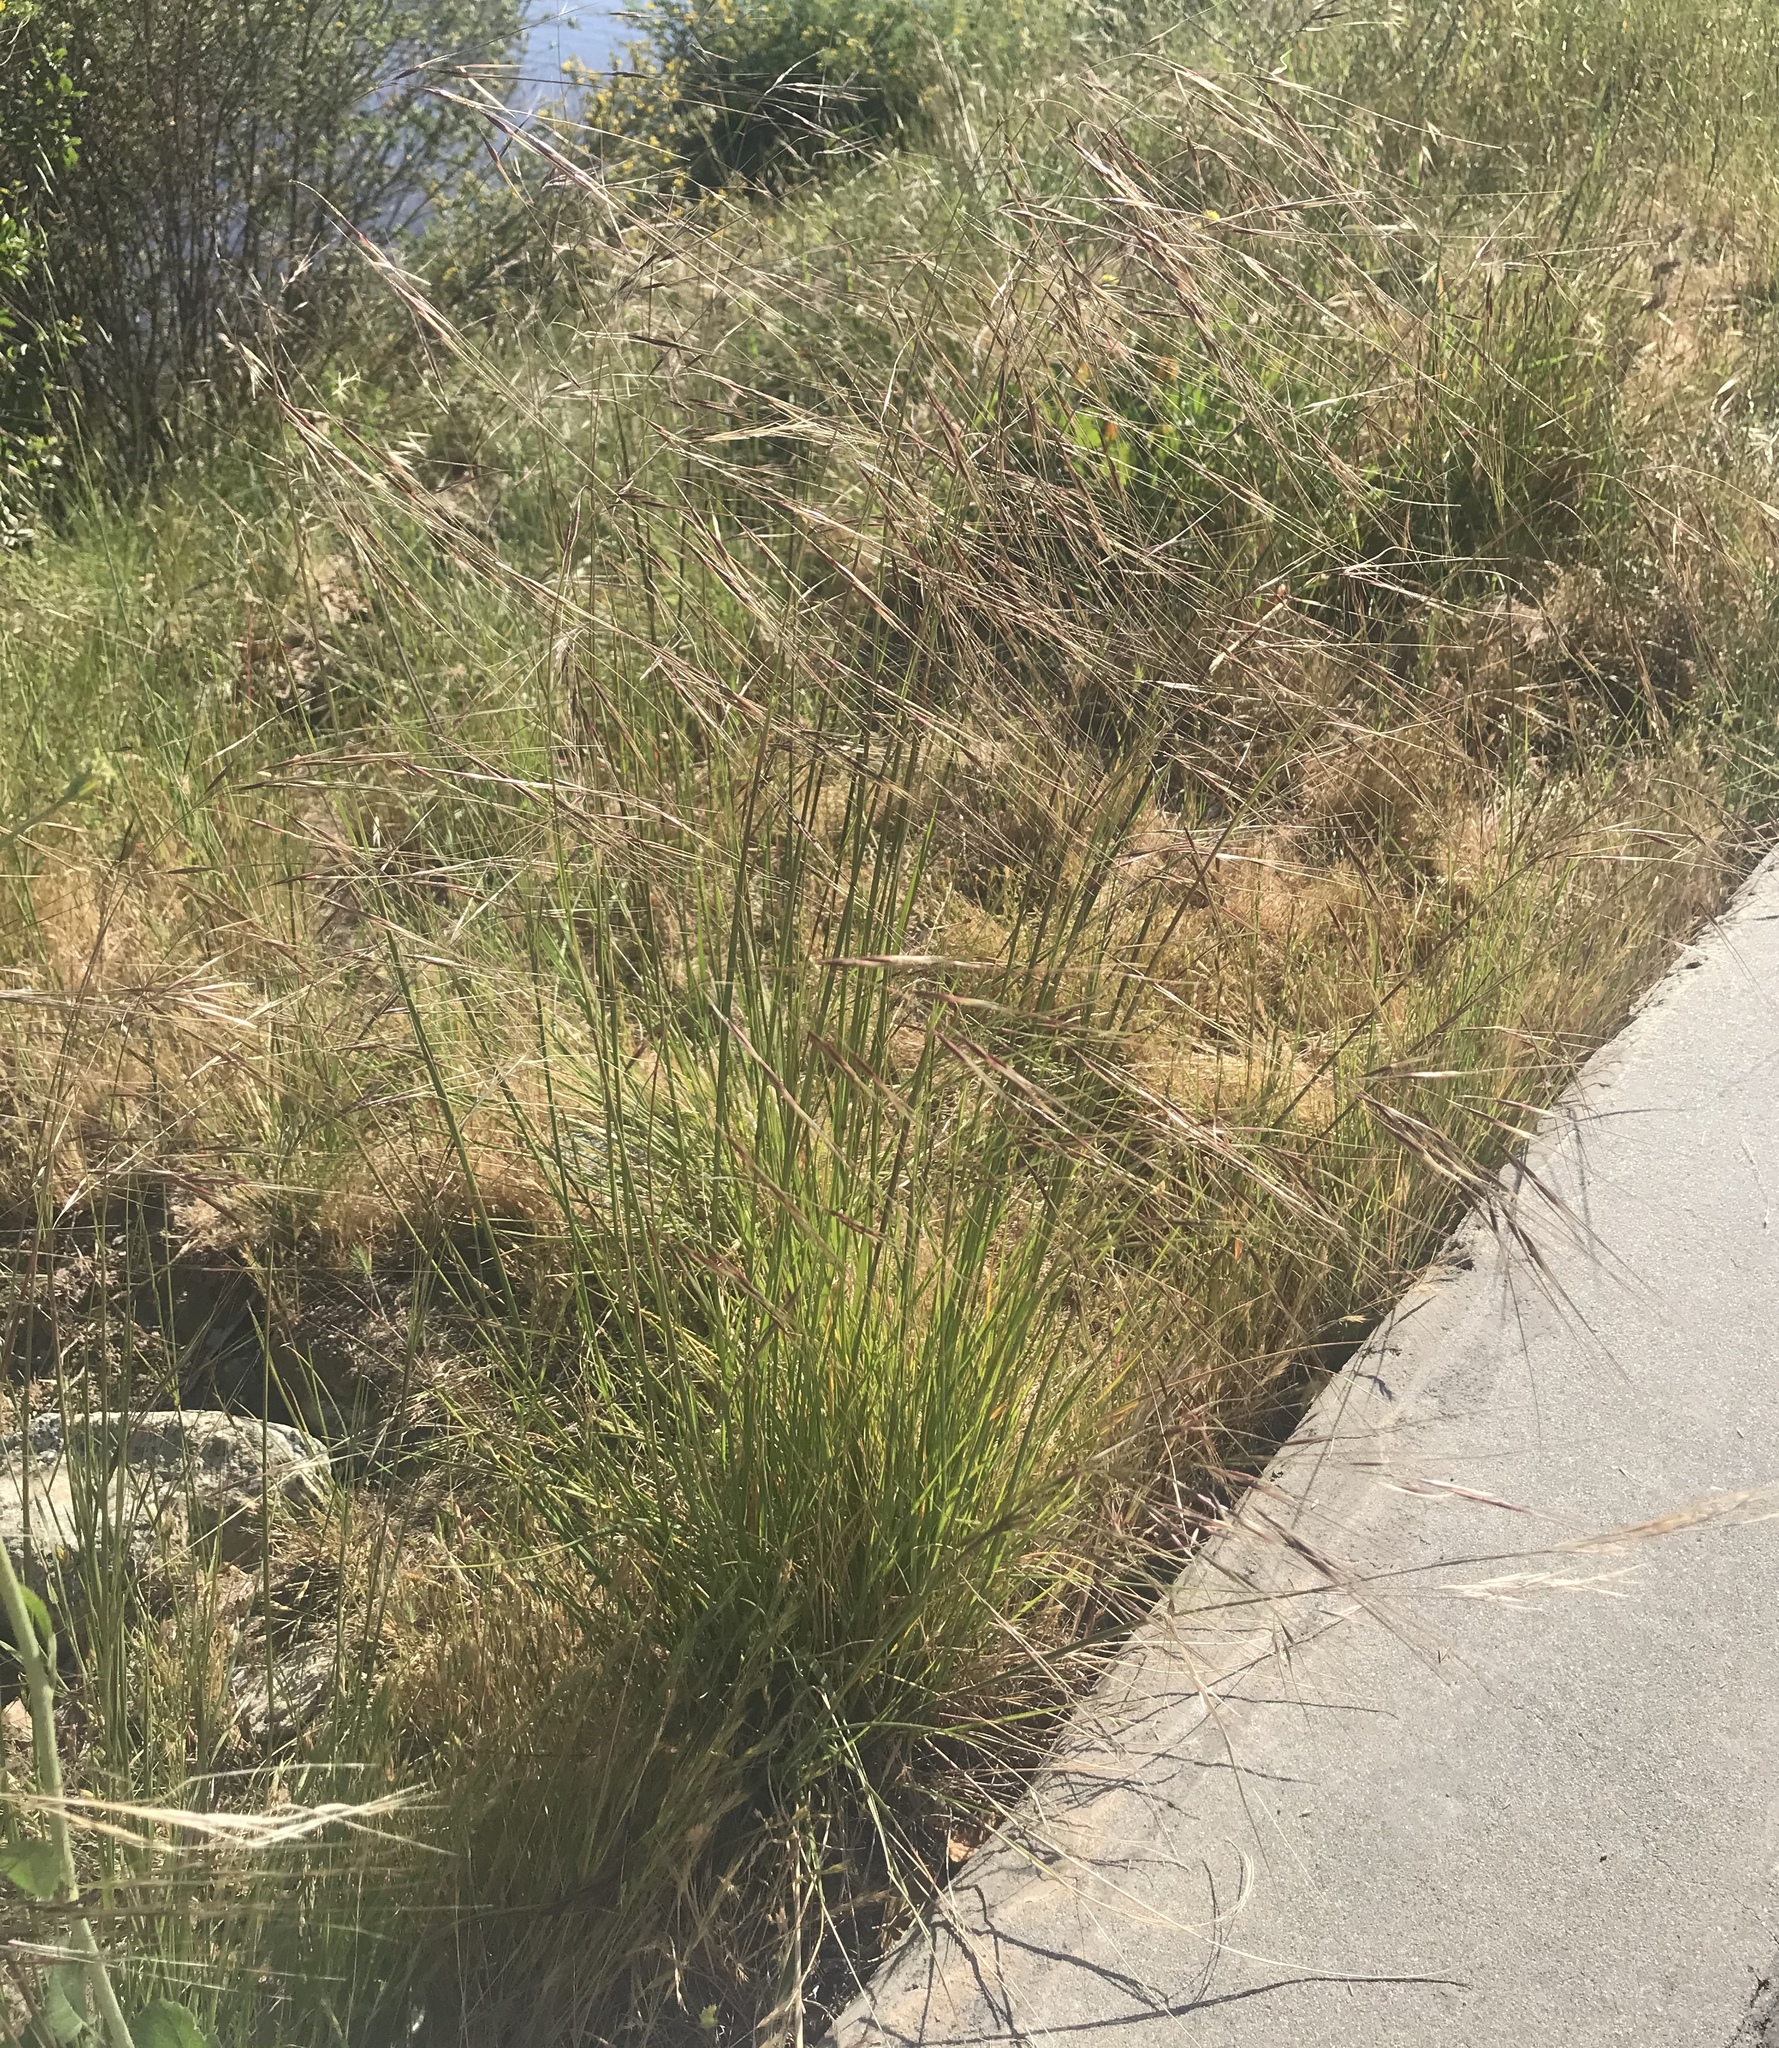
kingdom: Plantae
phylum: Tracheophyta
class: Liliopsida
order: Poales
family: Poaceae
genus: Nassella
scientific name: Nassella pulchra
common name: Purple needlegrass
